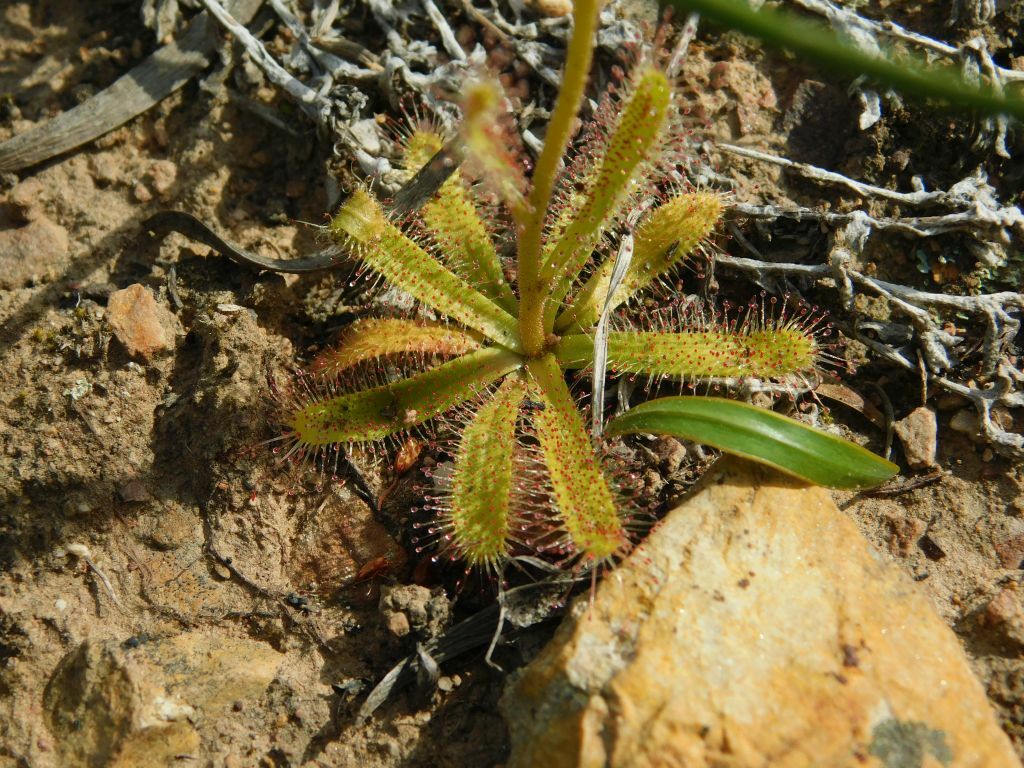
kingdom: Plantae
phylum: Tracheophyta
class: Magnoliopsida
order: Caryophyllales
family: Droseraceae
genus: Drosera
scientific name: Drosera cistiflora
